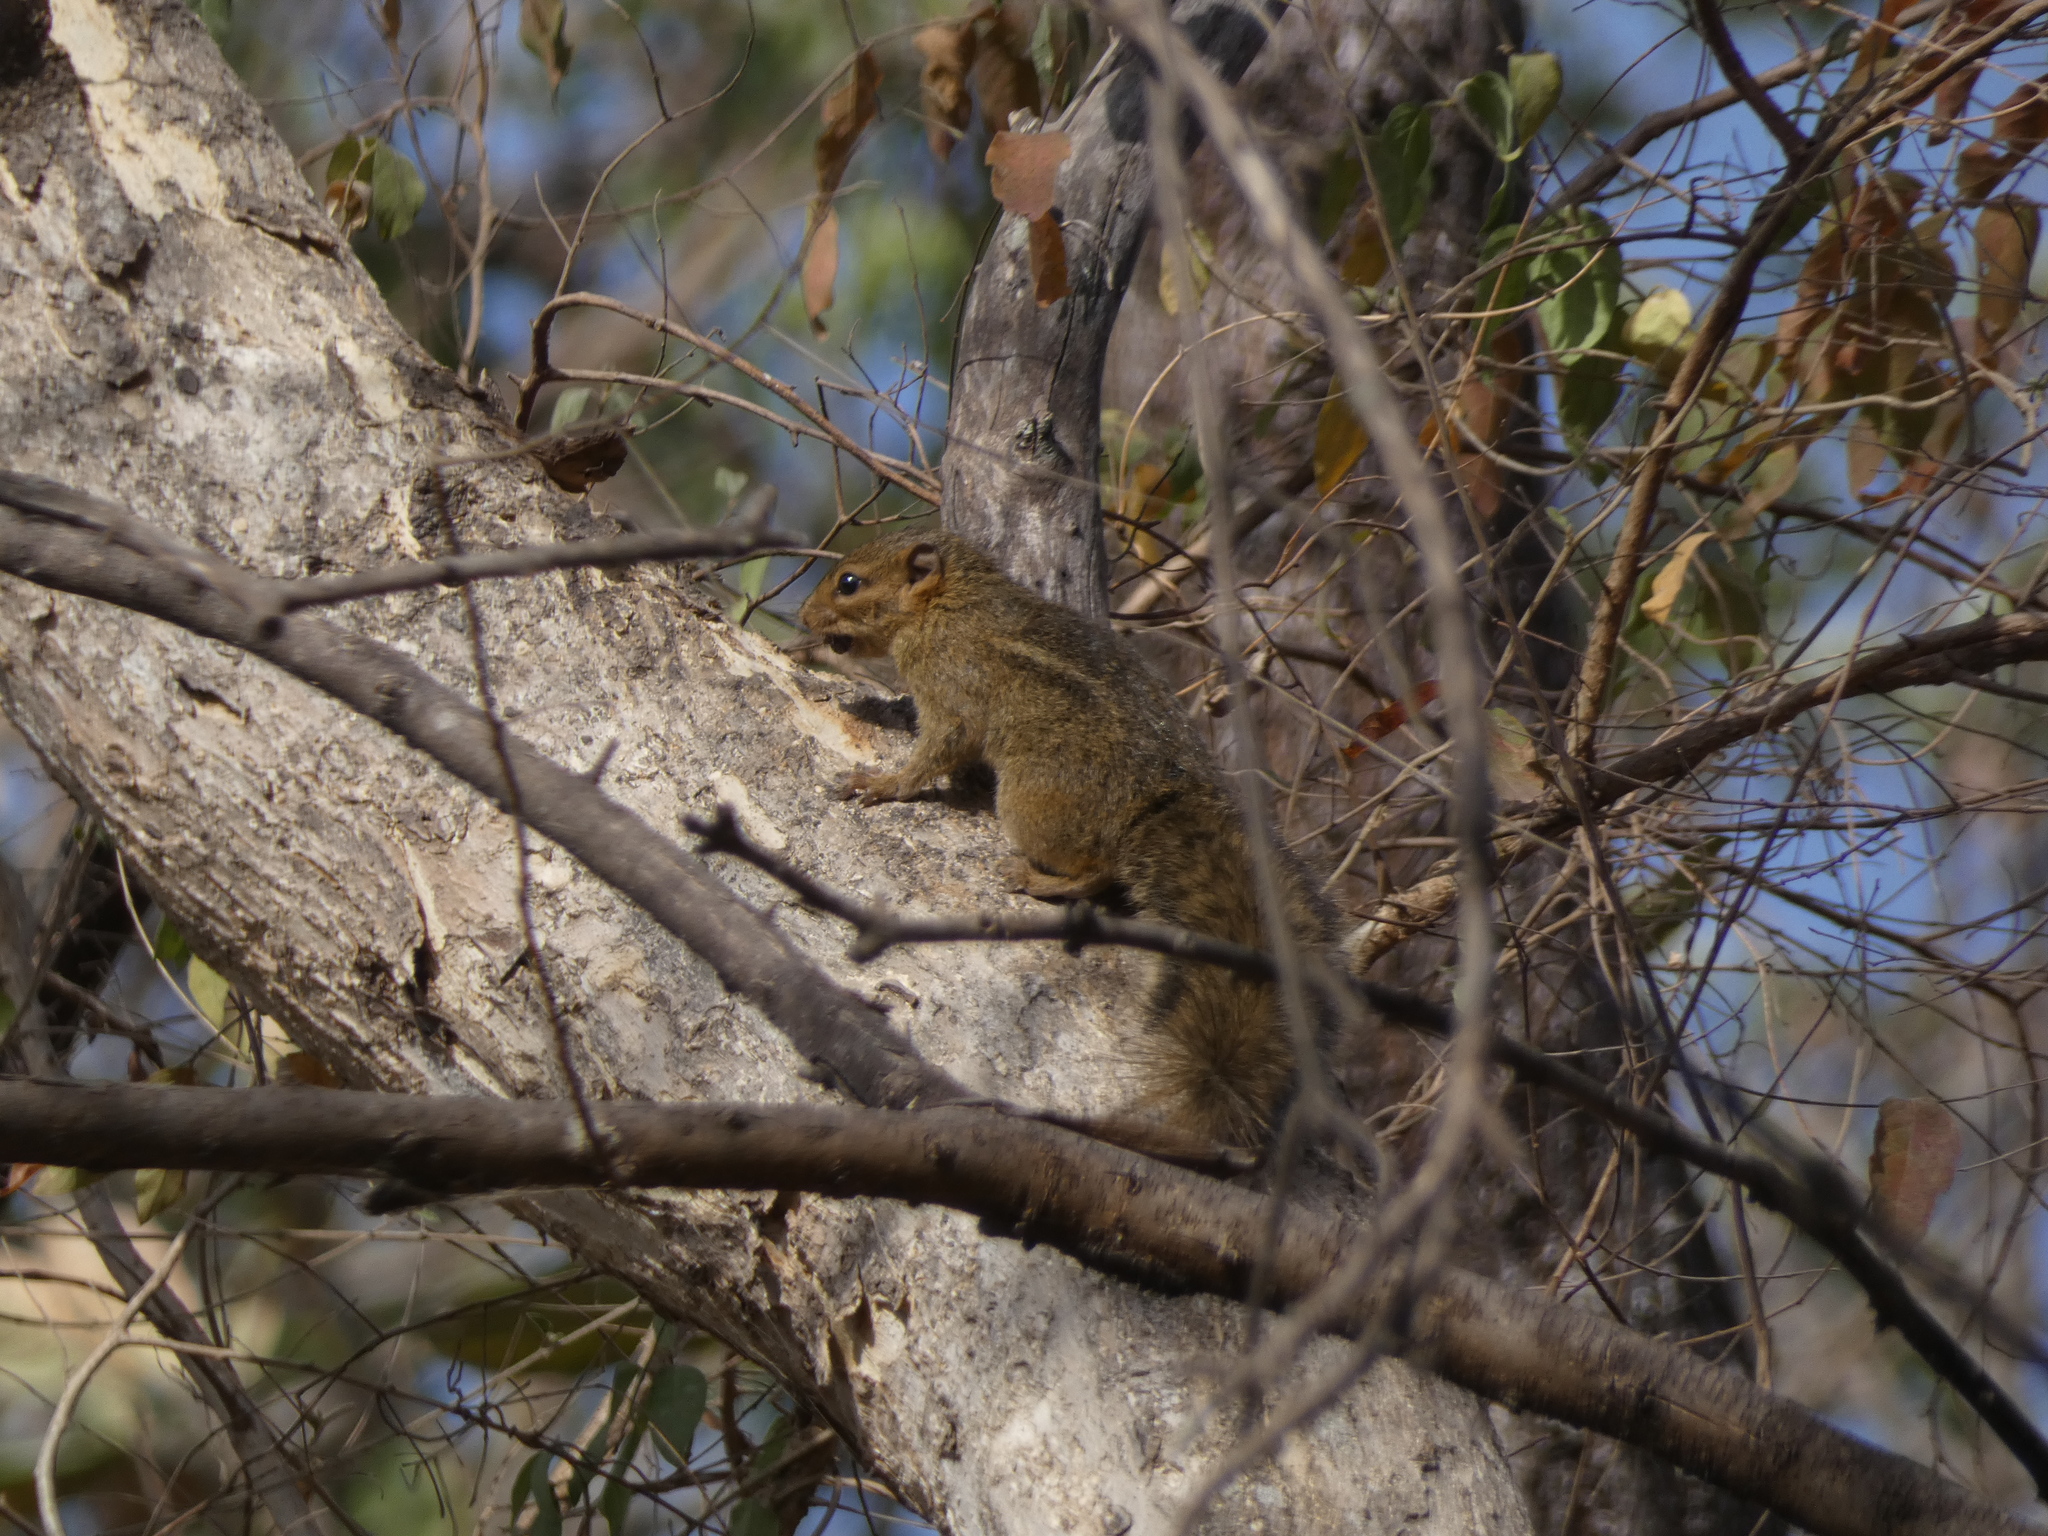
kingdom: Animalia
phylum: Chordata
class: Mammalia
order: Rodentia
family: Sciuridae
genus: Funisciurus
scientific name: Funisciurus substriatus
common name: Kintampo rope squirrel
